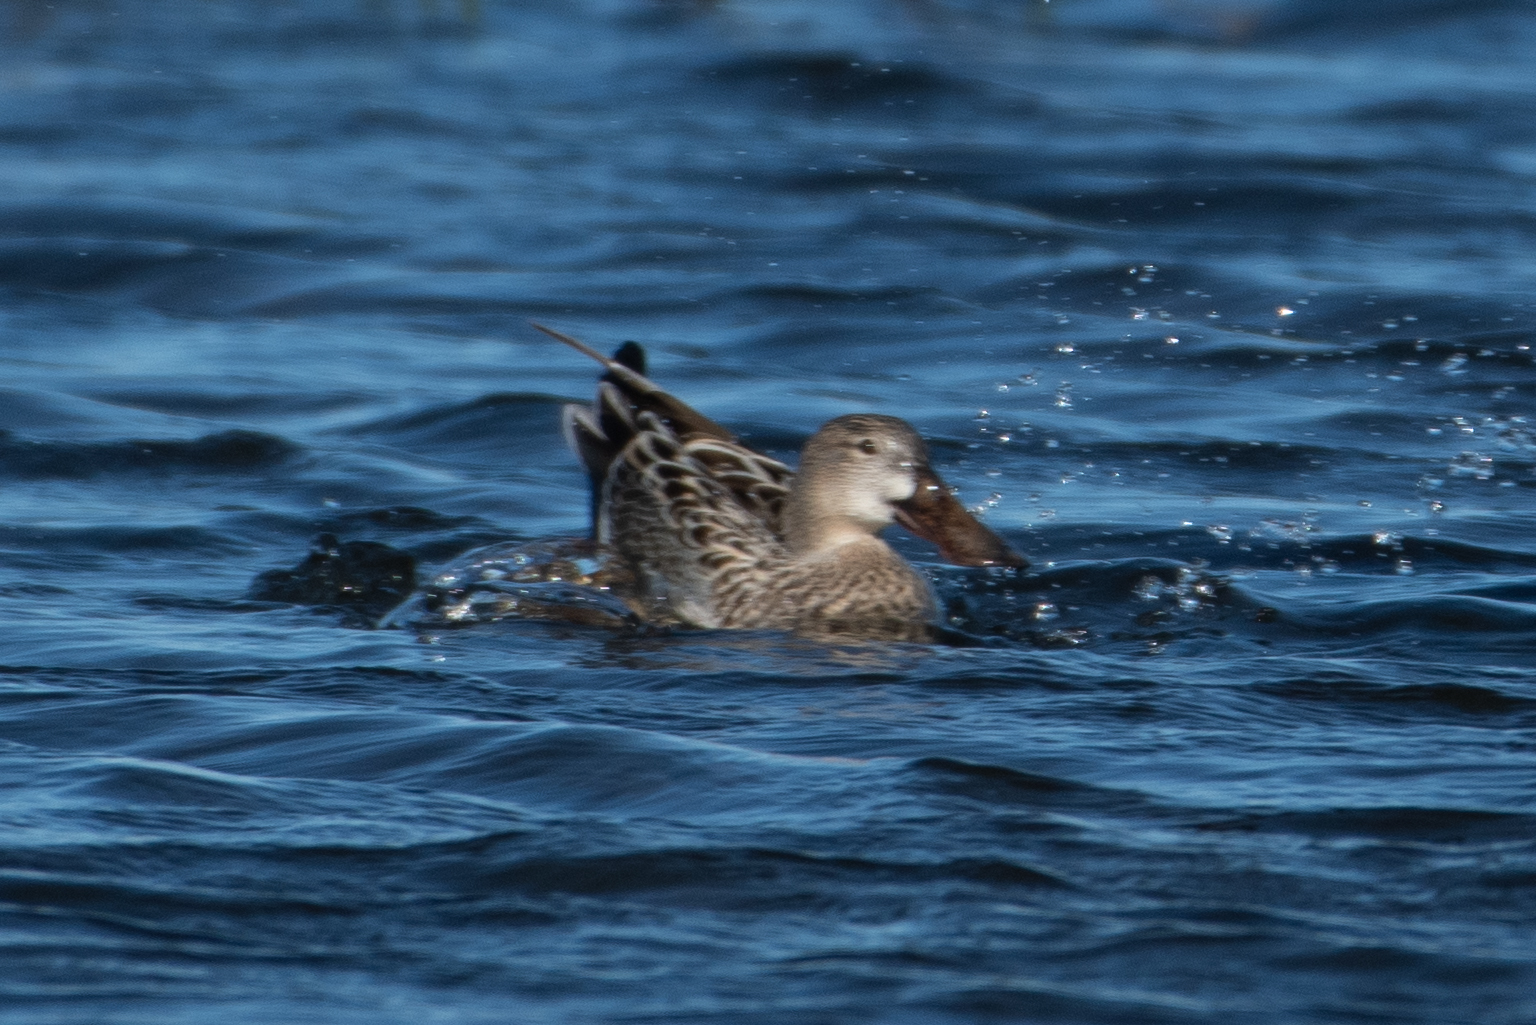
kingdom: Animalia
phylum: Chordata
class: Aves
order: Anseriformes
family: Anatidae
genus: Spatula
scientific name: Spatula clypeata
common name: Northern shoveler
